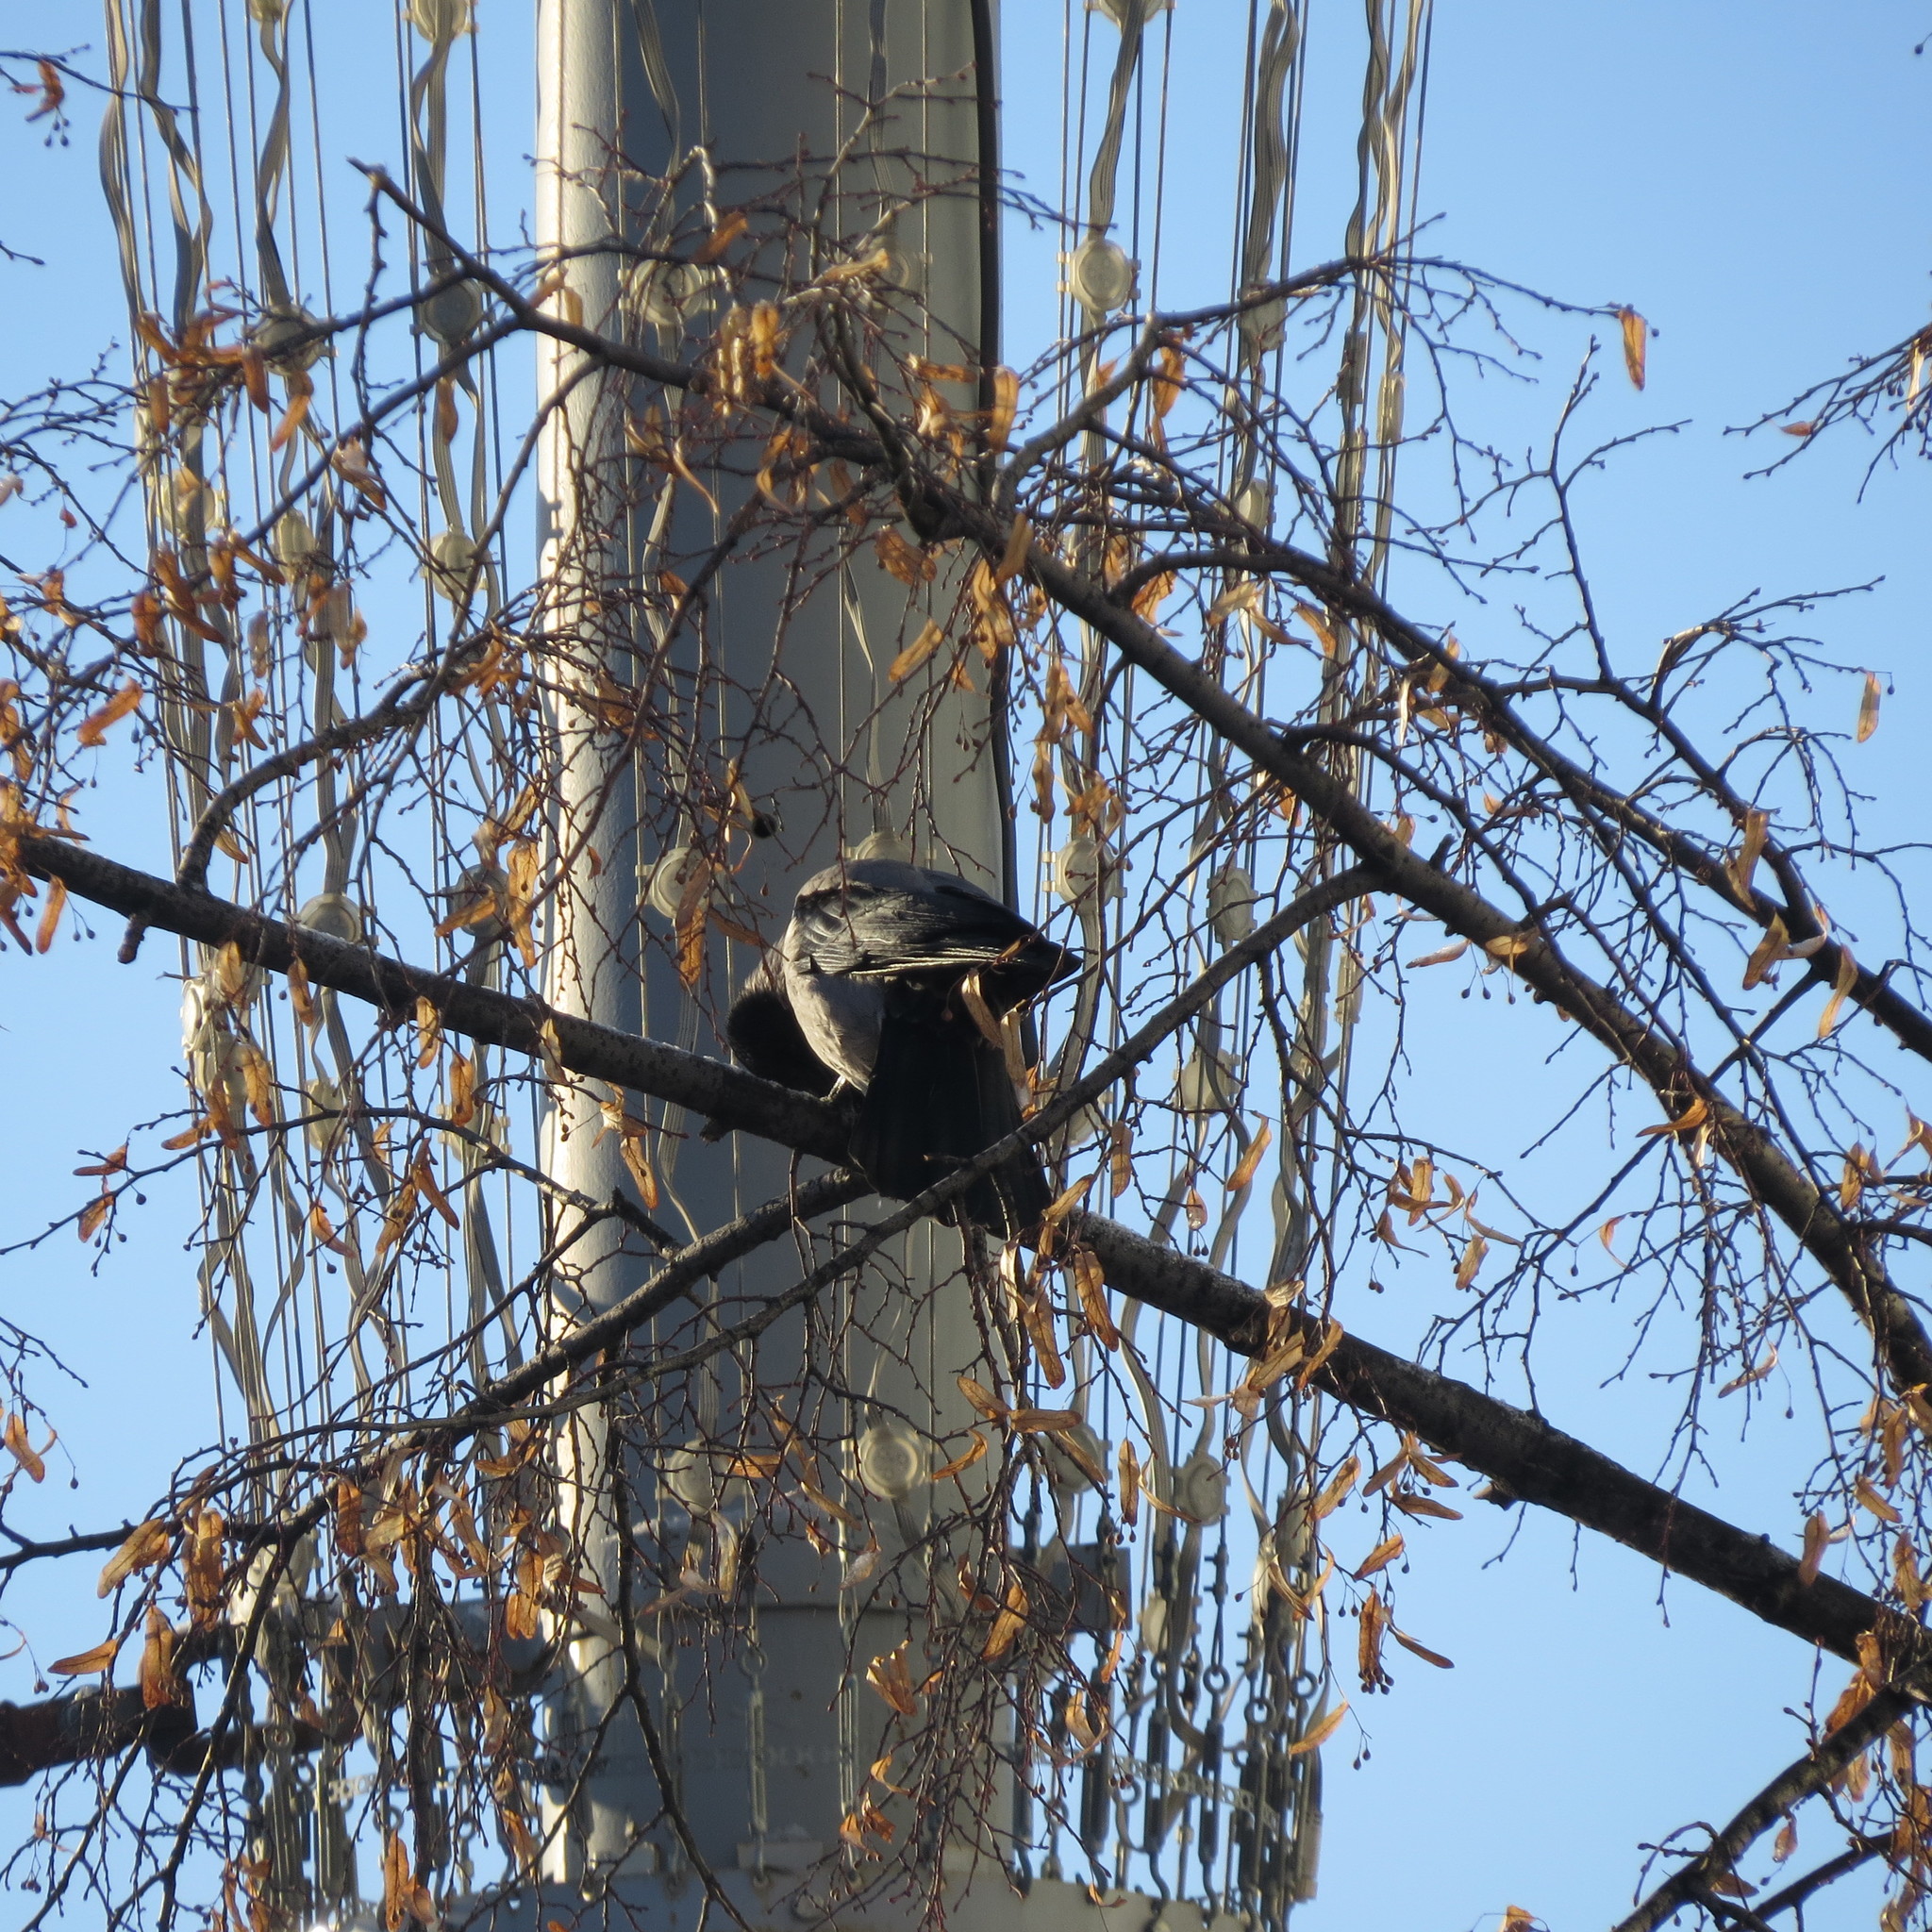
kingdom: Animalia
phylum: Chordata
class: Aves
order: Passeriformes
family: Corvidae
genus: Corvus
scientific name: Corvus cornix
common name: Hooded crow
